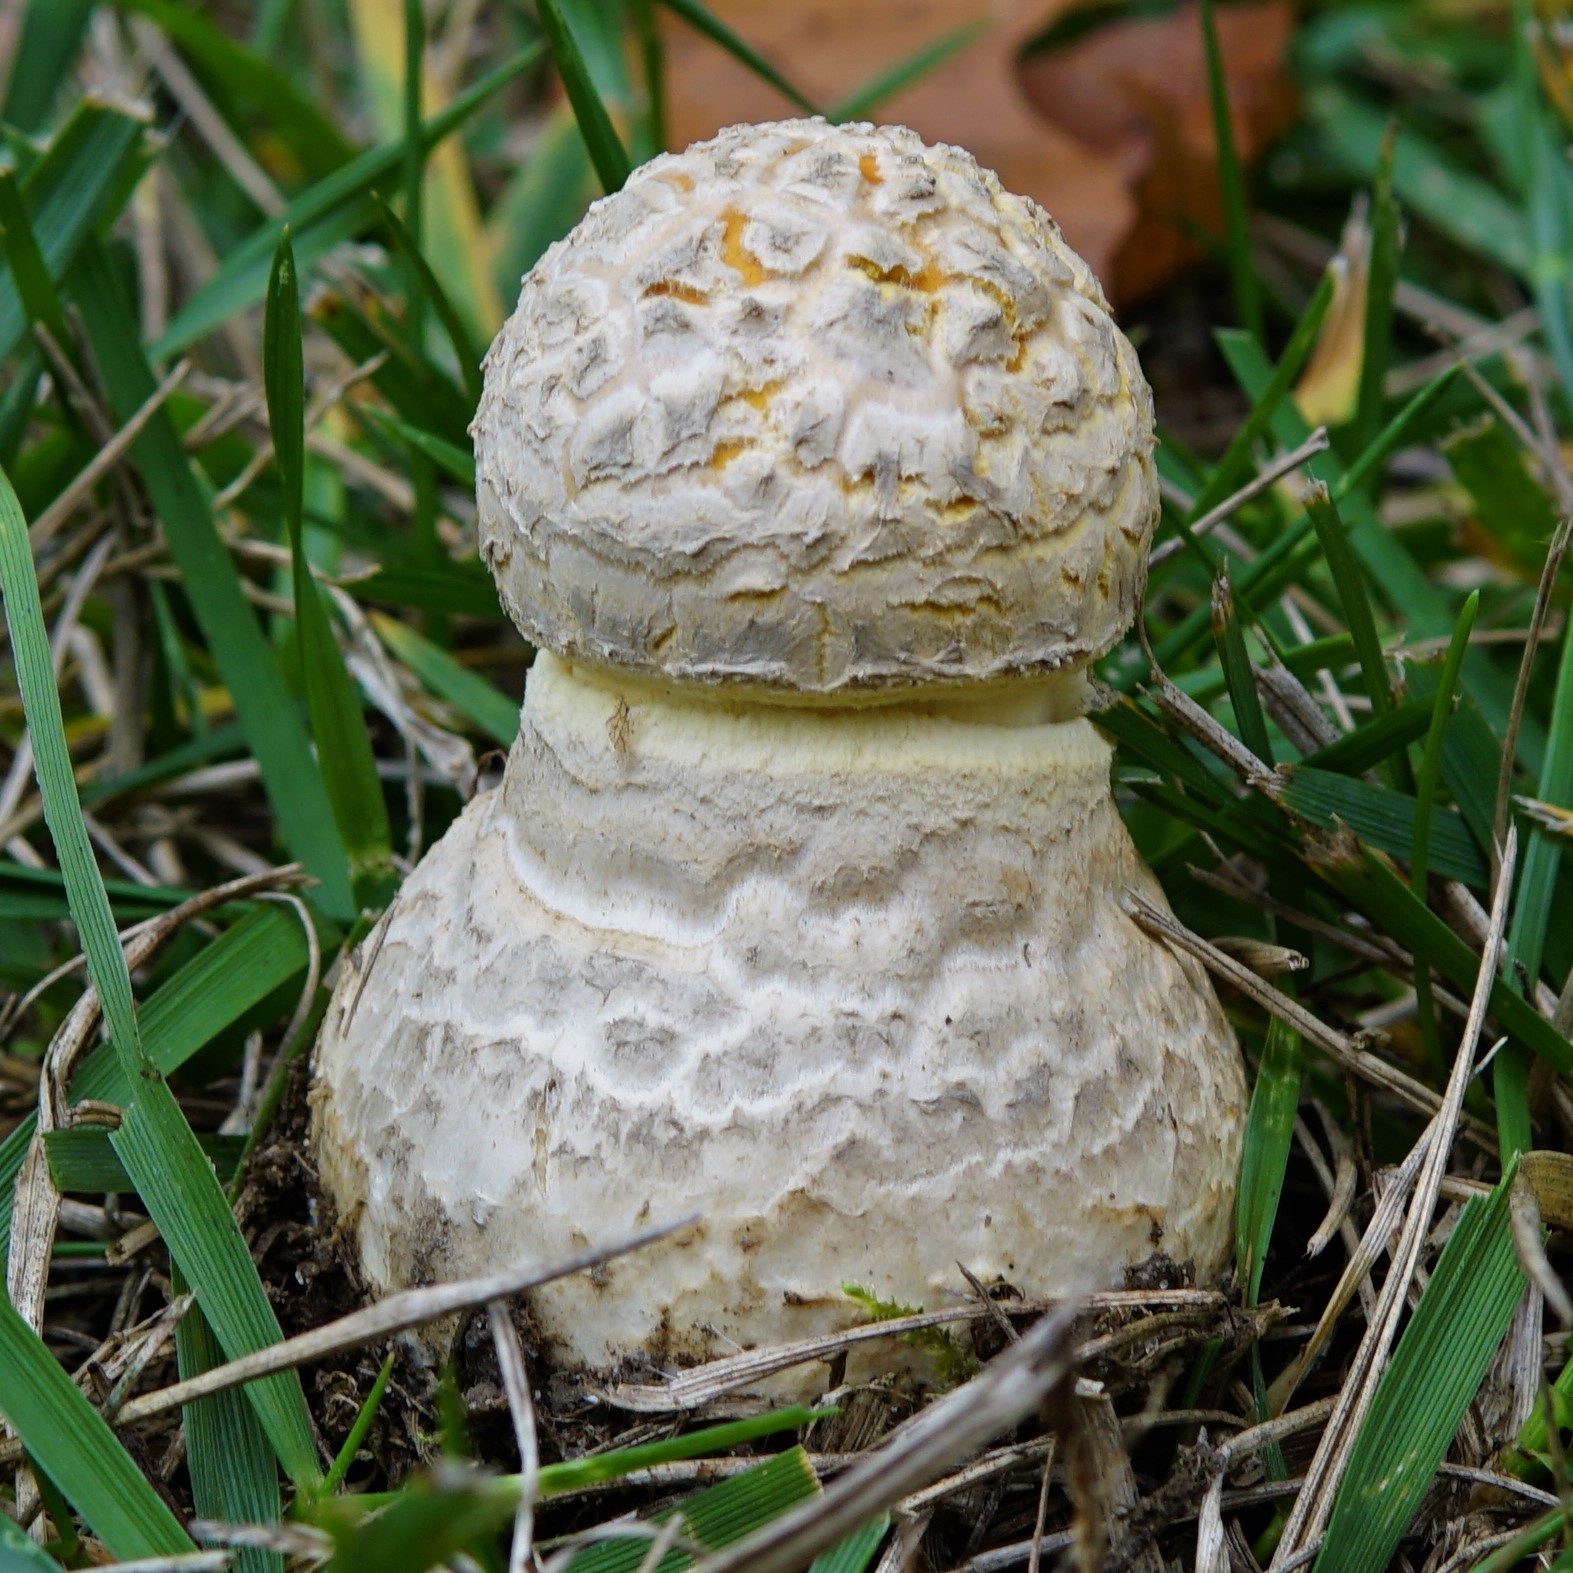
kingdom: Fungi
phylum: Basidiomycota
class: Agaricomycetes
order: Agaricales
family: Amanitaceae
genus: Amanita
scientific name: Amanita muscaria
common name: Fly agaric
